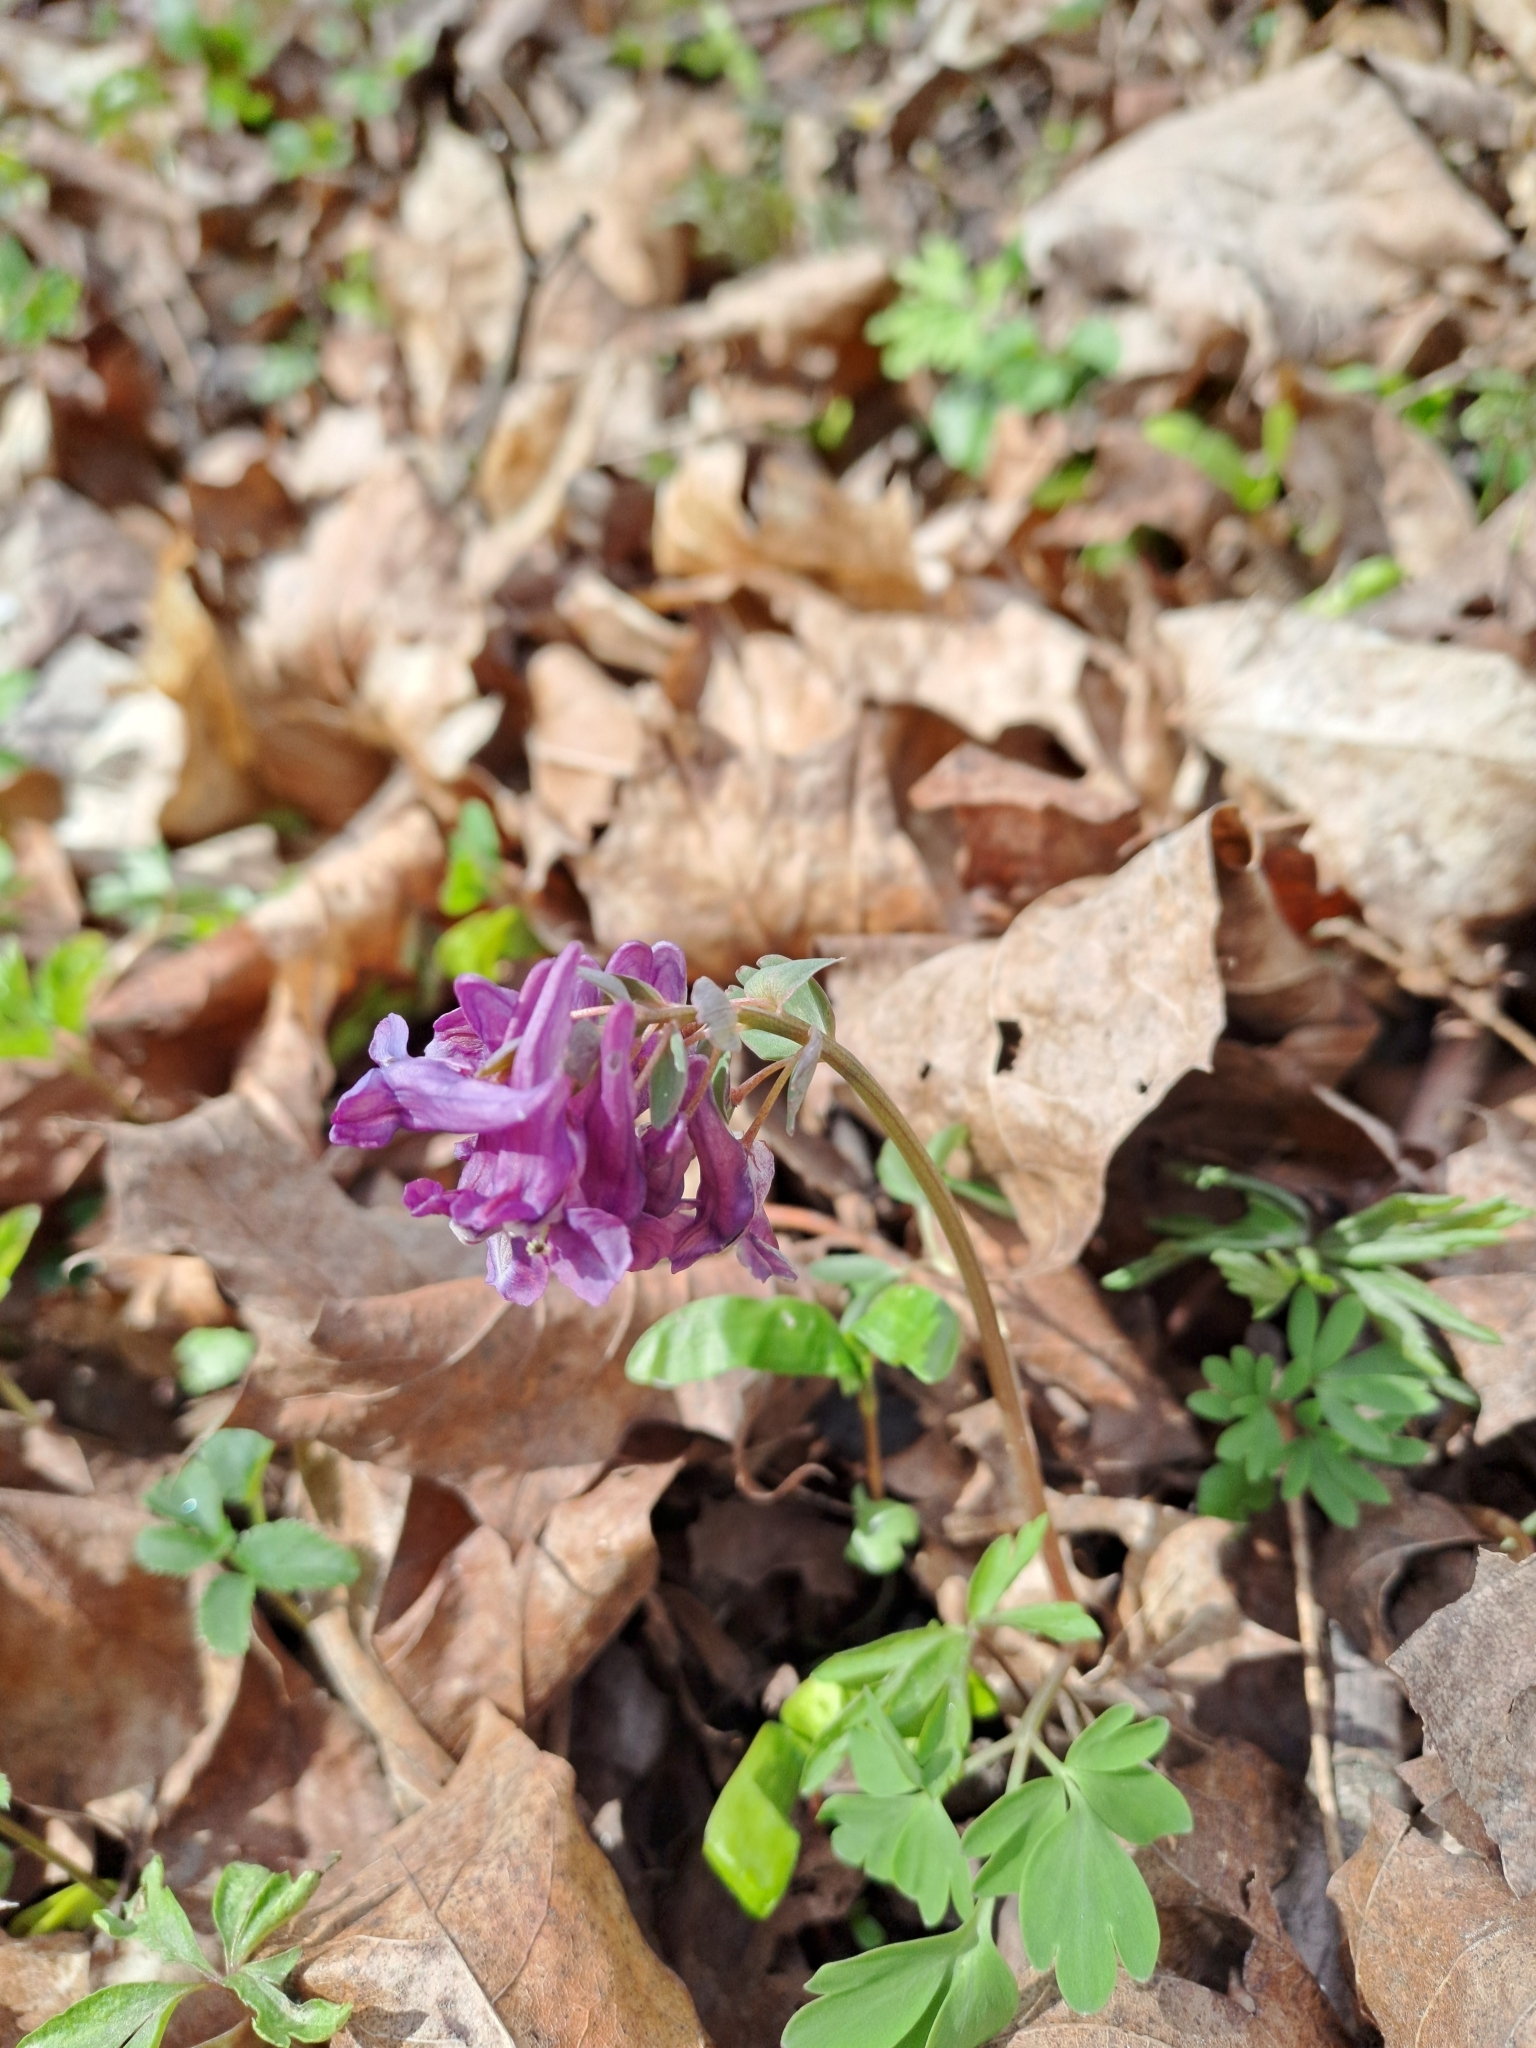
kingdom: Plantae
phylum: Tracheophyta
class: Magnoliopsida
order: Ranunculales
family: Papaveraceae
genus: Corydalis
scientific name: Corydalis solida
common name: Bird-in-a-bush
